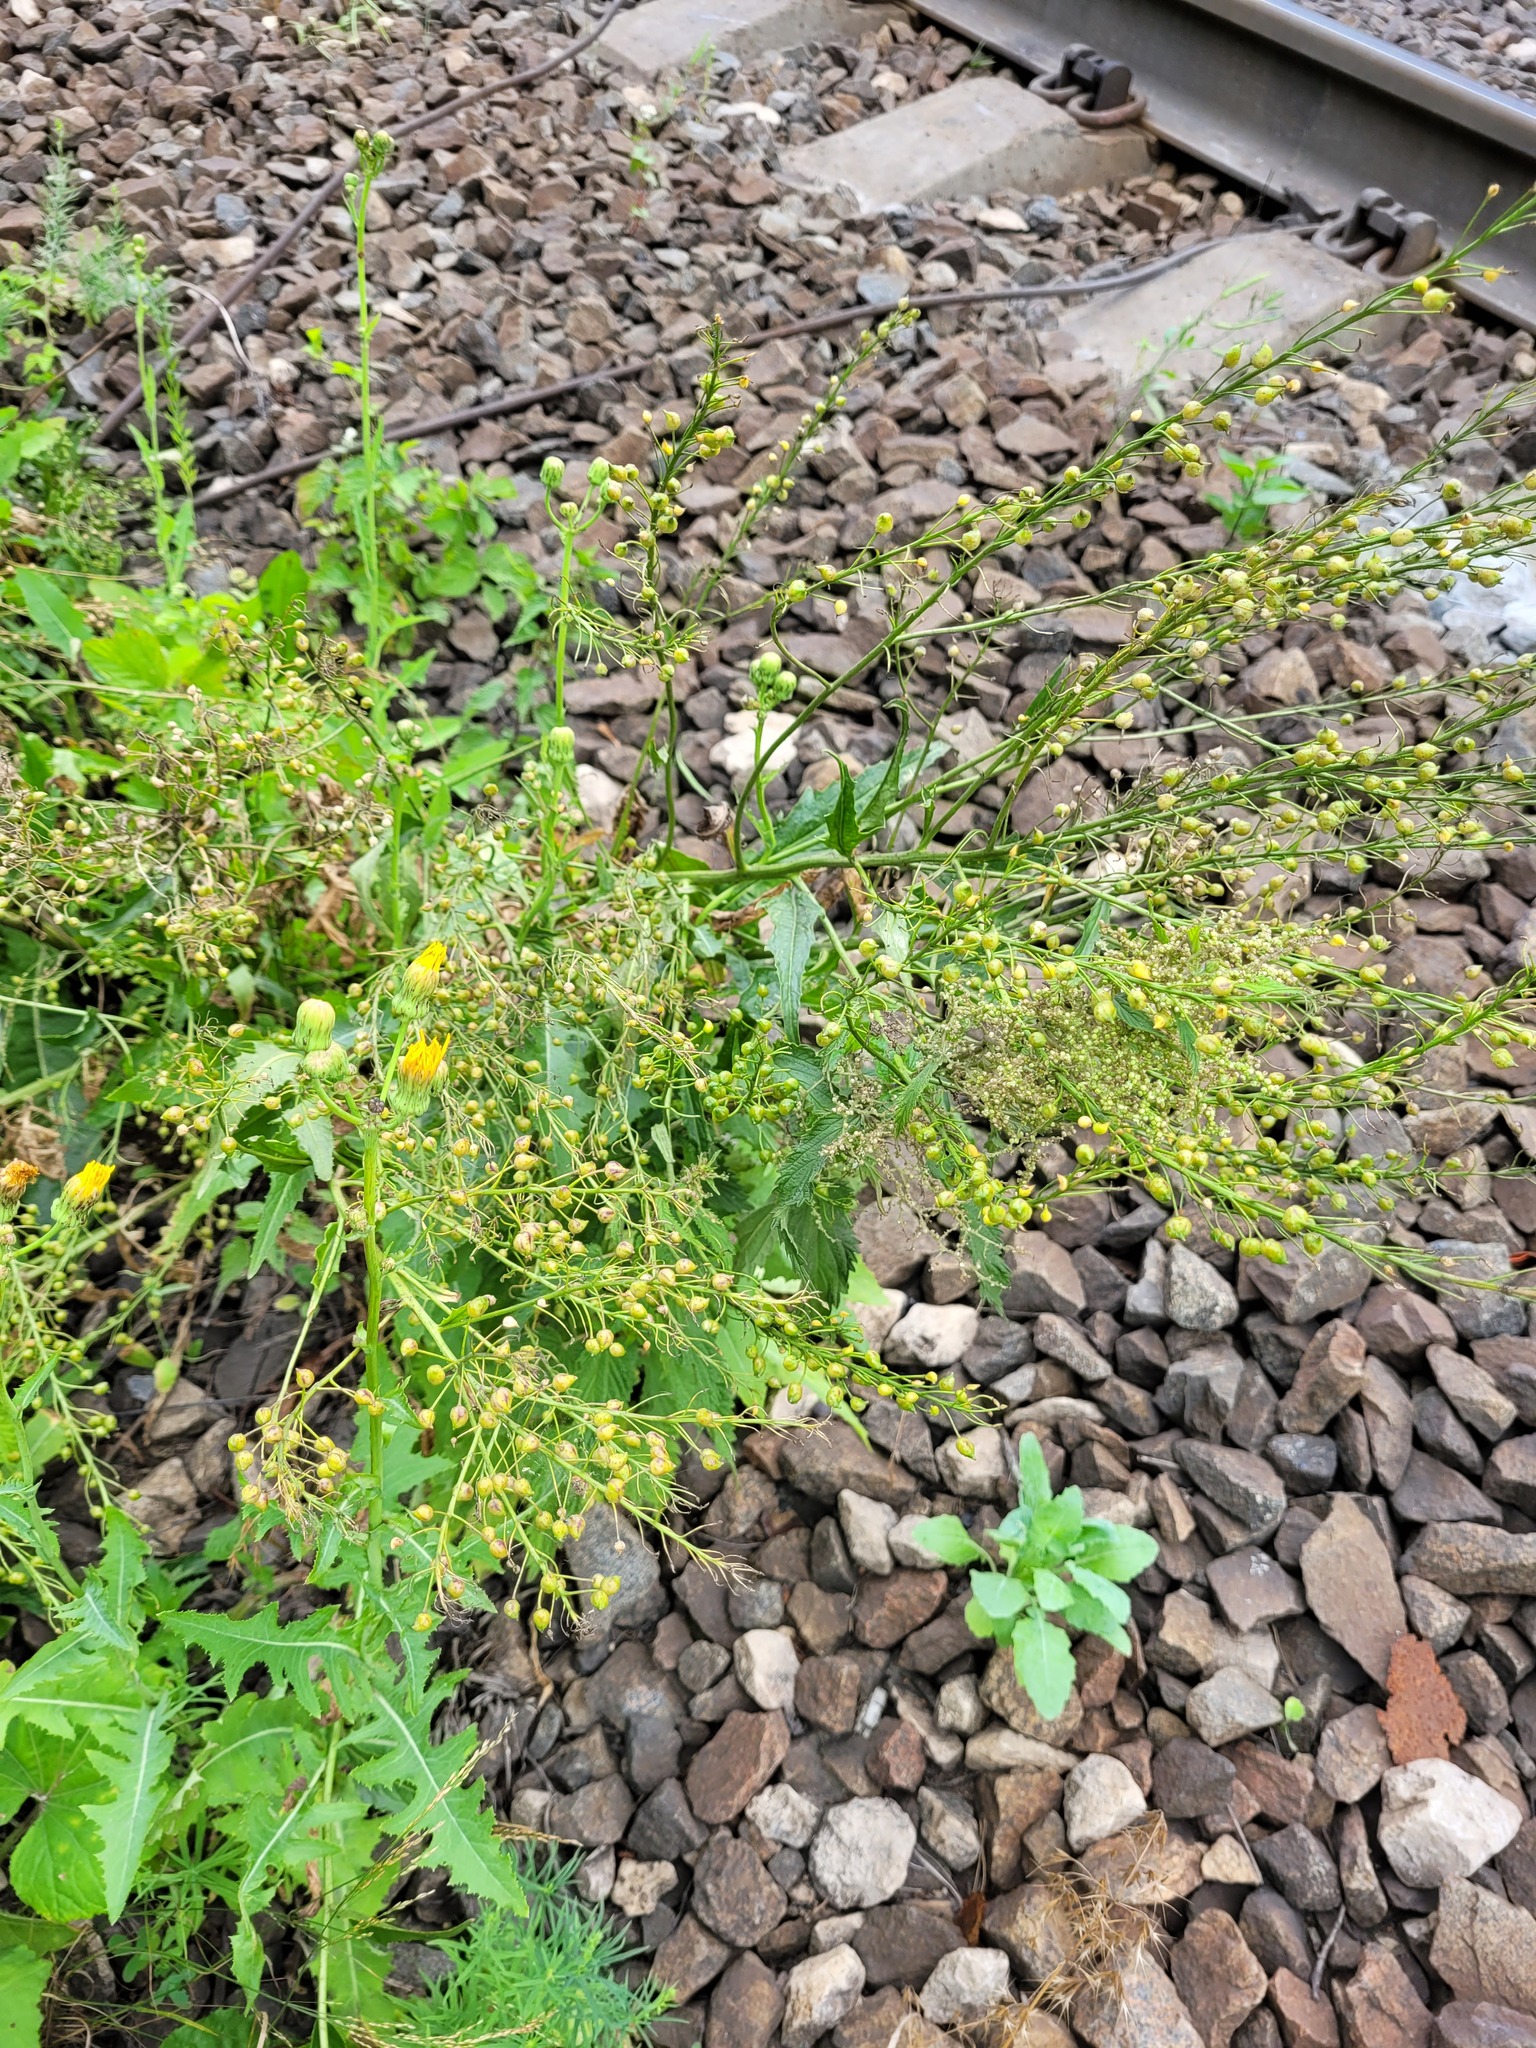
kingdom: Plantae
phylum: Tracheophyta
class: Magnoliopsida
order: Brassicales
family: Brassicaceae
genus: Bunias
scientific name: Bunias orientalis
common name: Warty-cabbage
